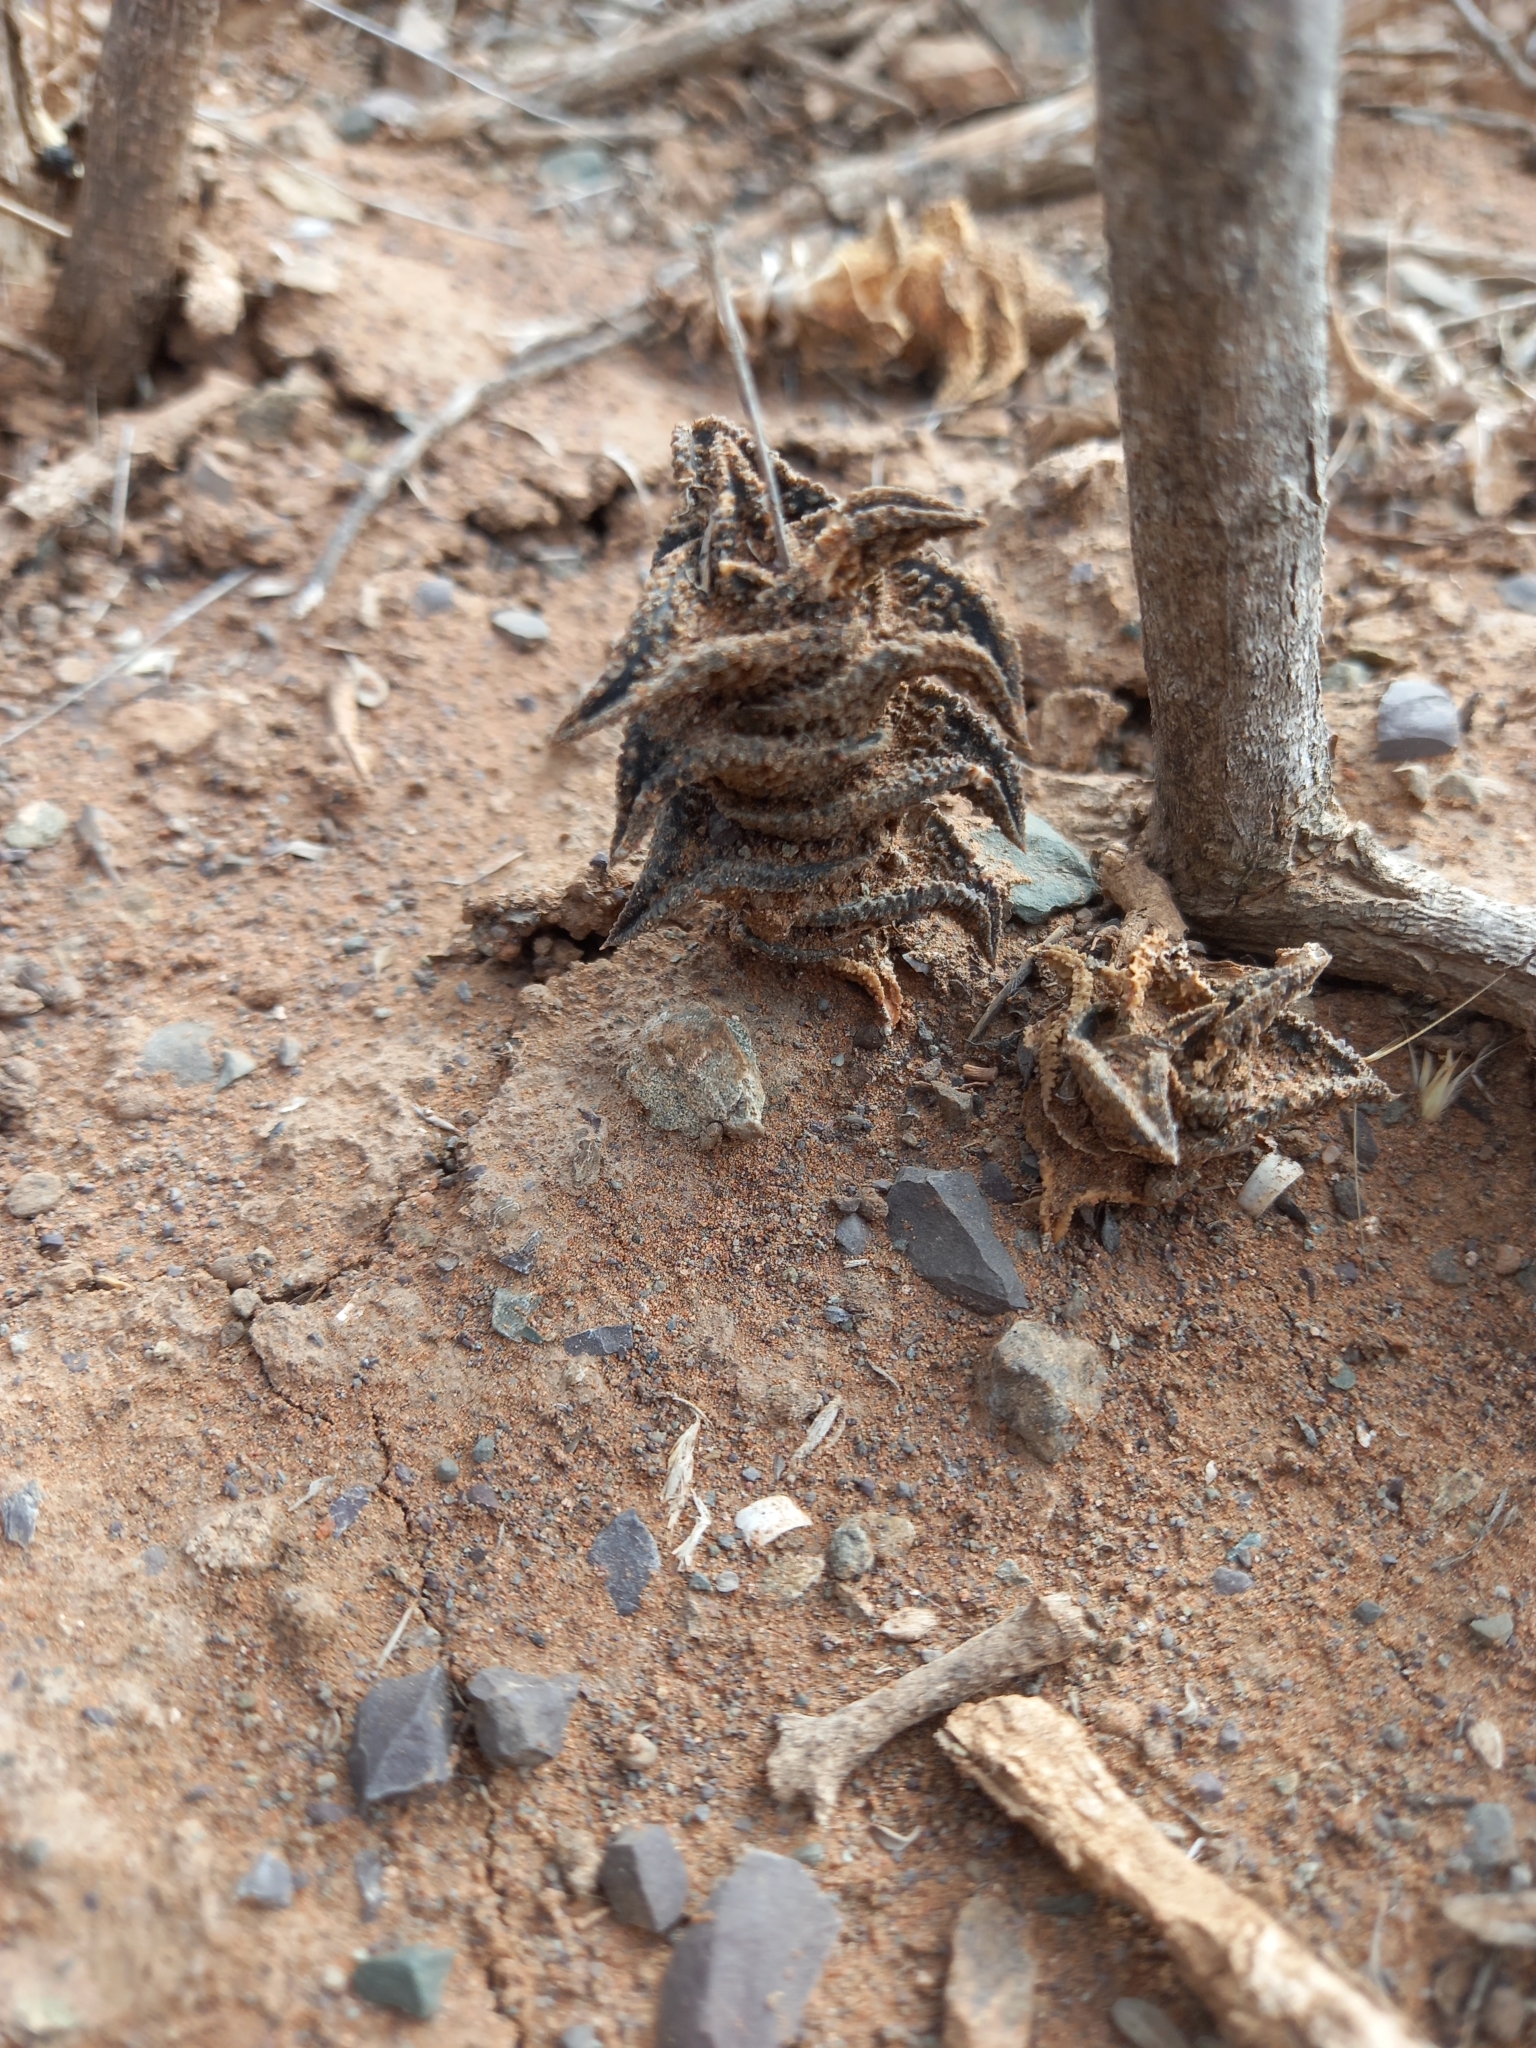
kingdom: Plantae
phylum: Tracheophyta
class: Liliopsida
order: Asparagales
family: Asphodelaceae
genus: Haworthiopsis
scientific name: Haworthiopsis nigra
